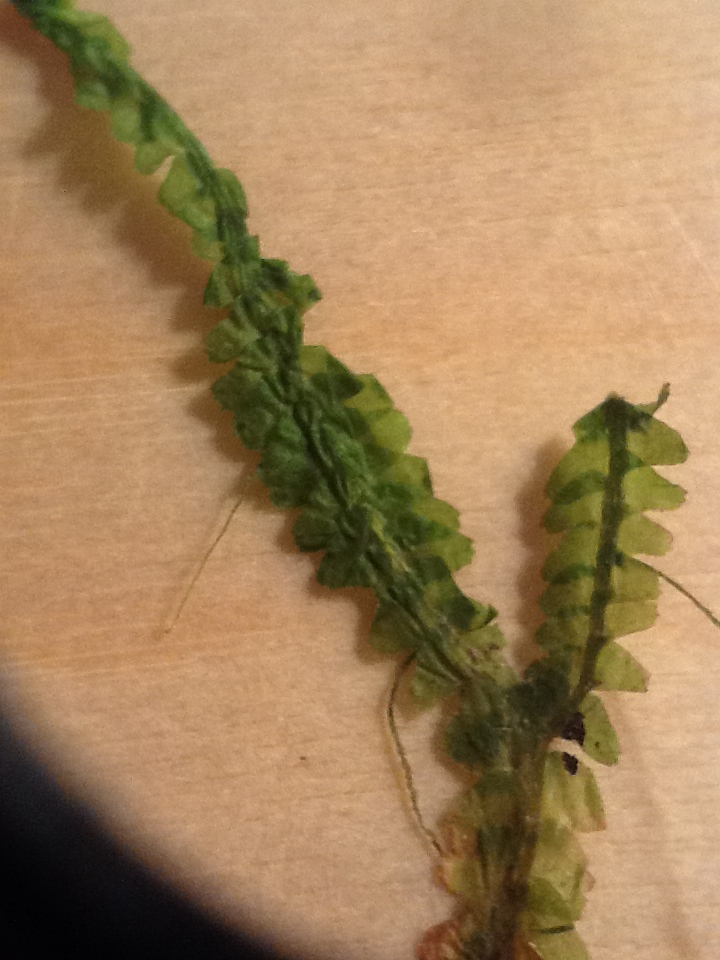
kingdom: Plantae
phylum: Marchantiophyta
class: Jungermanniopsida
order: Jungermanniales
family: Lepidoziaceae
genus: Bazzania
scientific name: Bazzania trilobata
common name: Three-lobed whipwort
